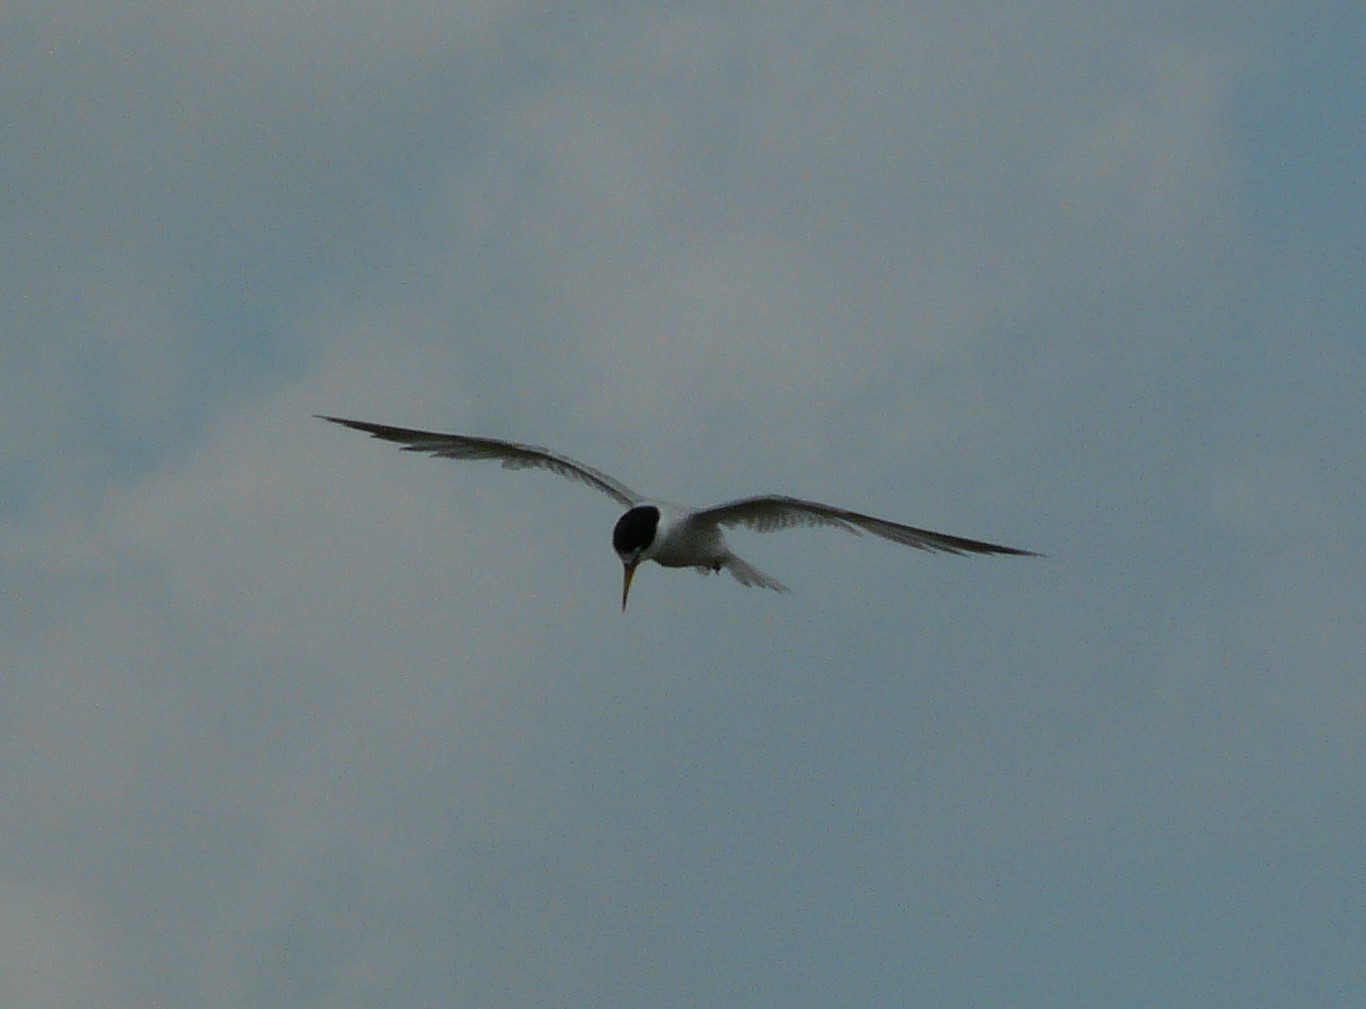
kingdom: Animalia
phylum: Chordata
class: Aves
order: Charadriiformes
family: Laridae
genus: Sternula
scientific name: Sternula antillarum
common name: Least tern
